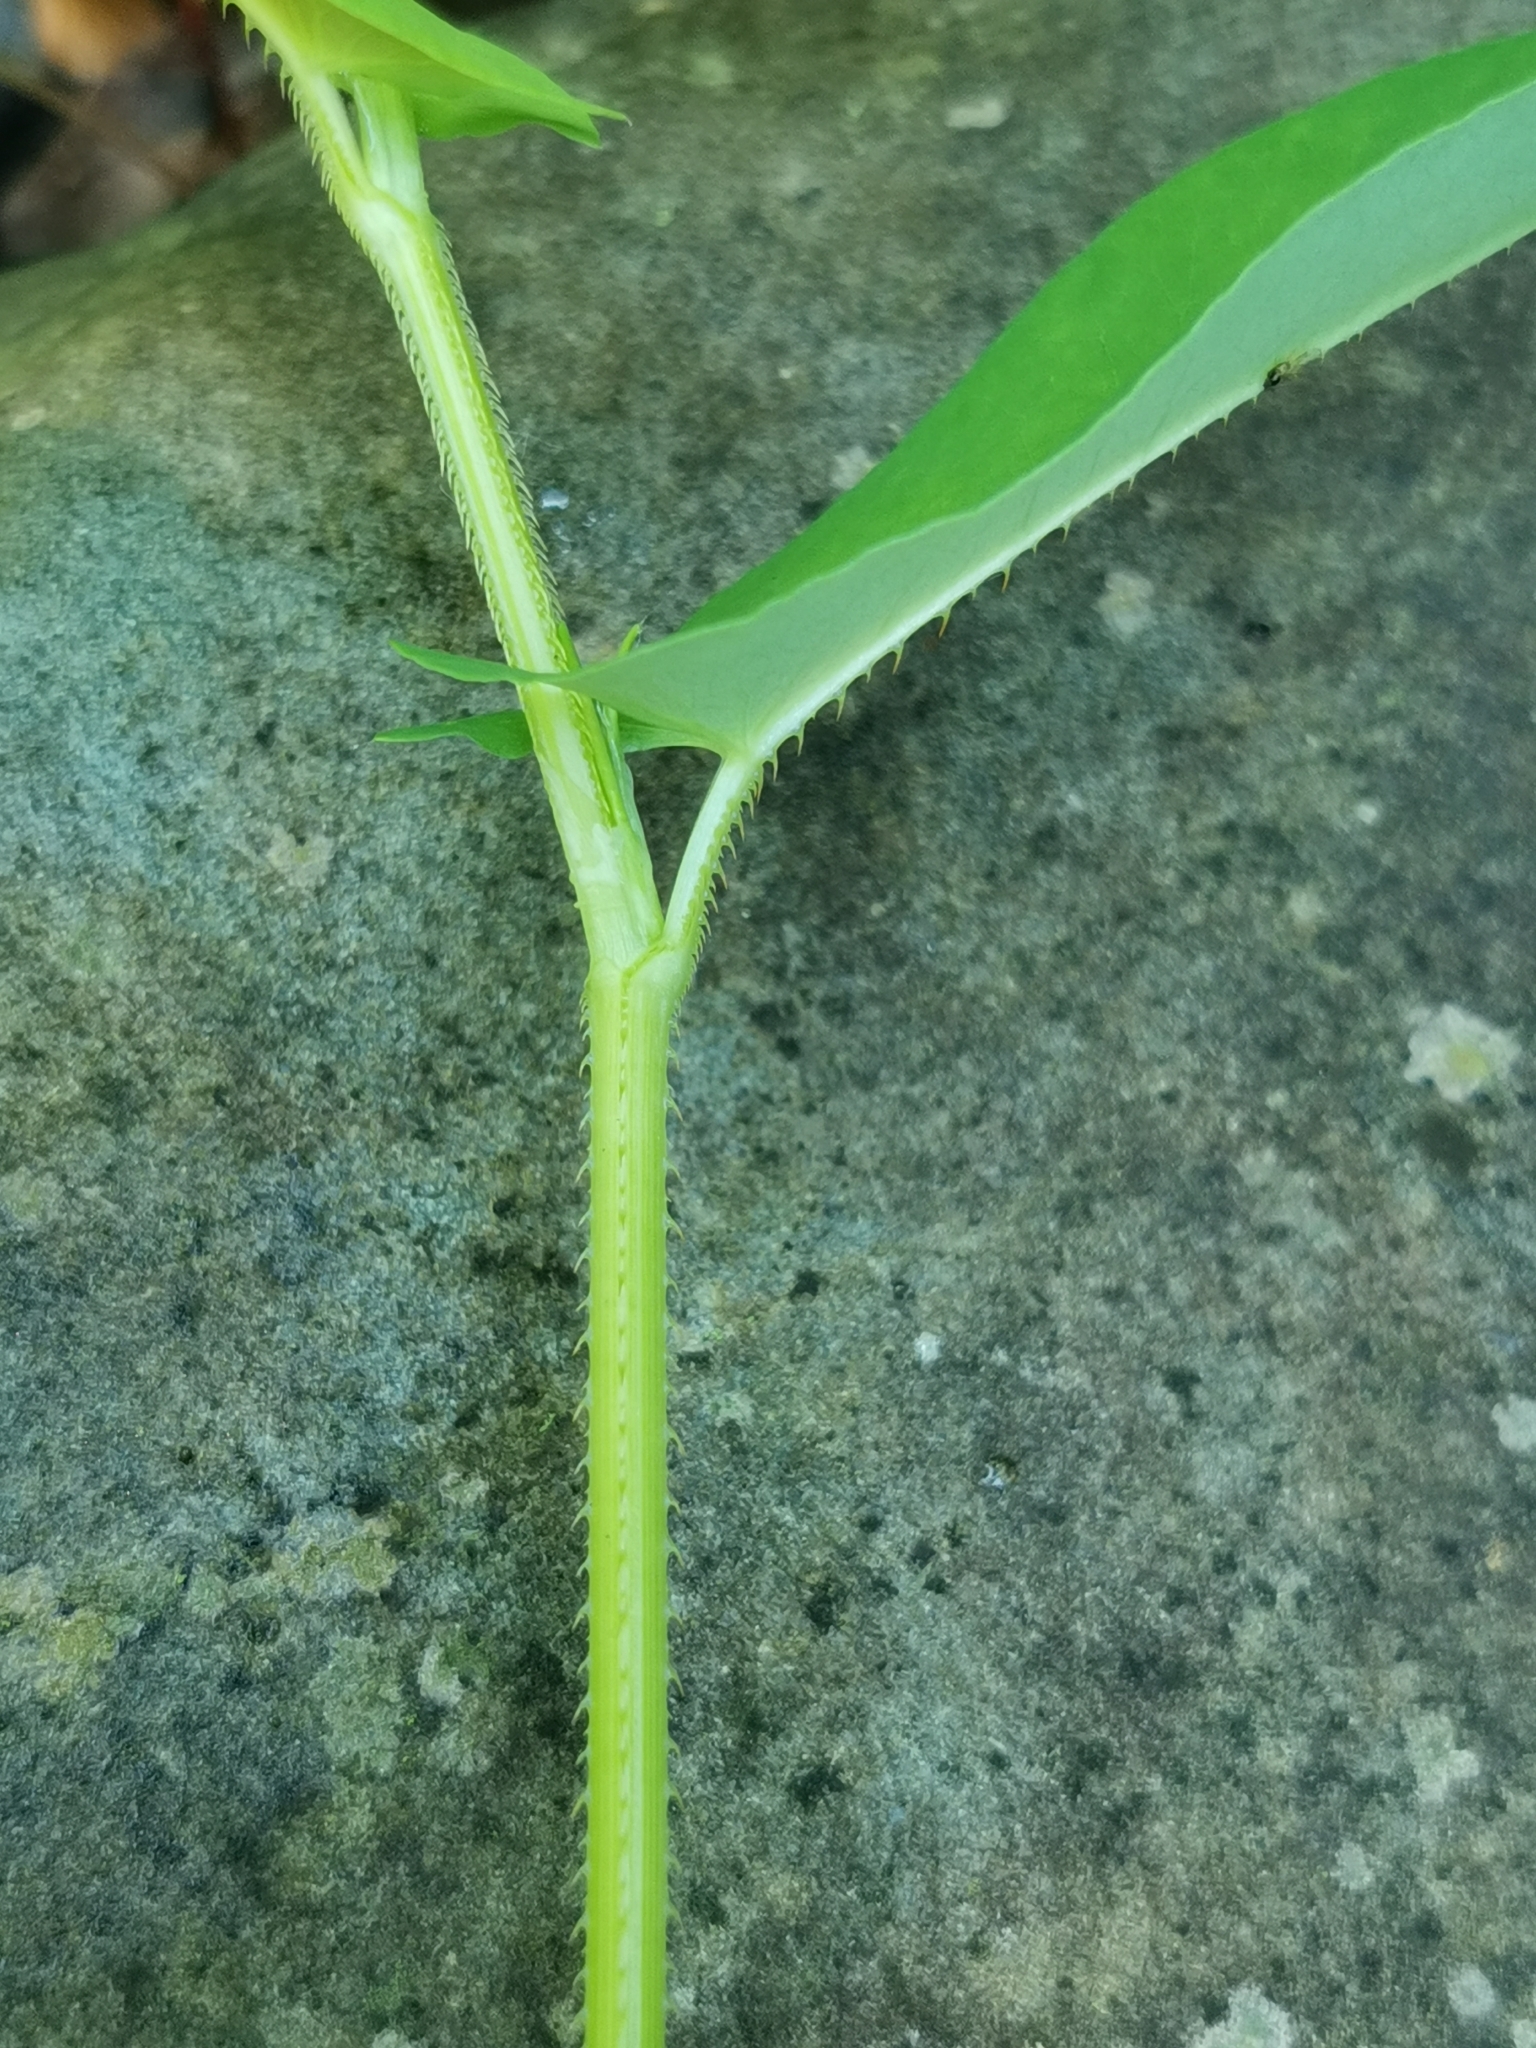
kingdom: Plantae
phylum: Tracheophyta
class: Magnoliopsida
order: Caryophyllales
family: Polygonaceae
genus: Persicaria
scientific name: Persicaria sagittata
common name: American tearthumb
